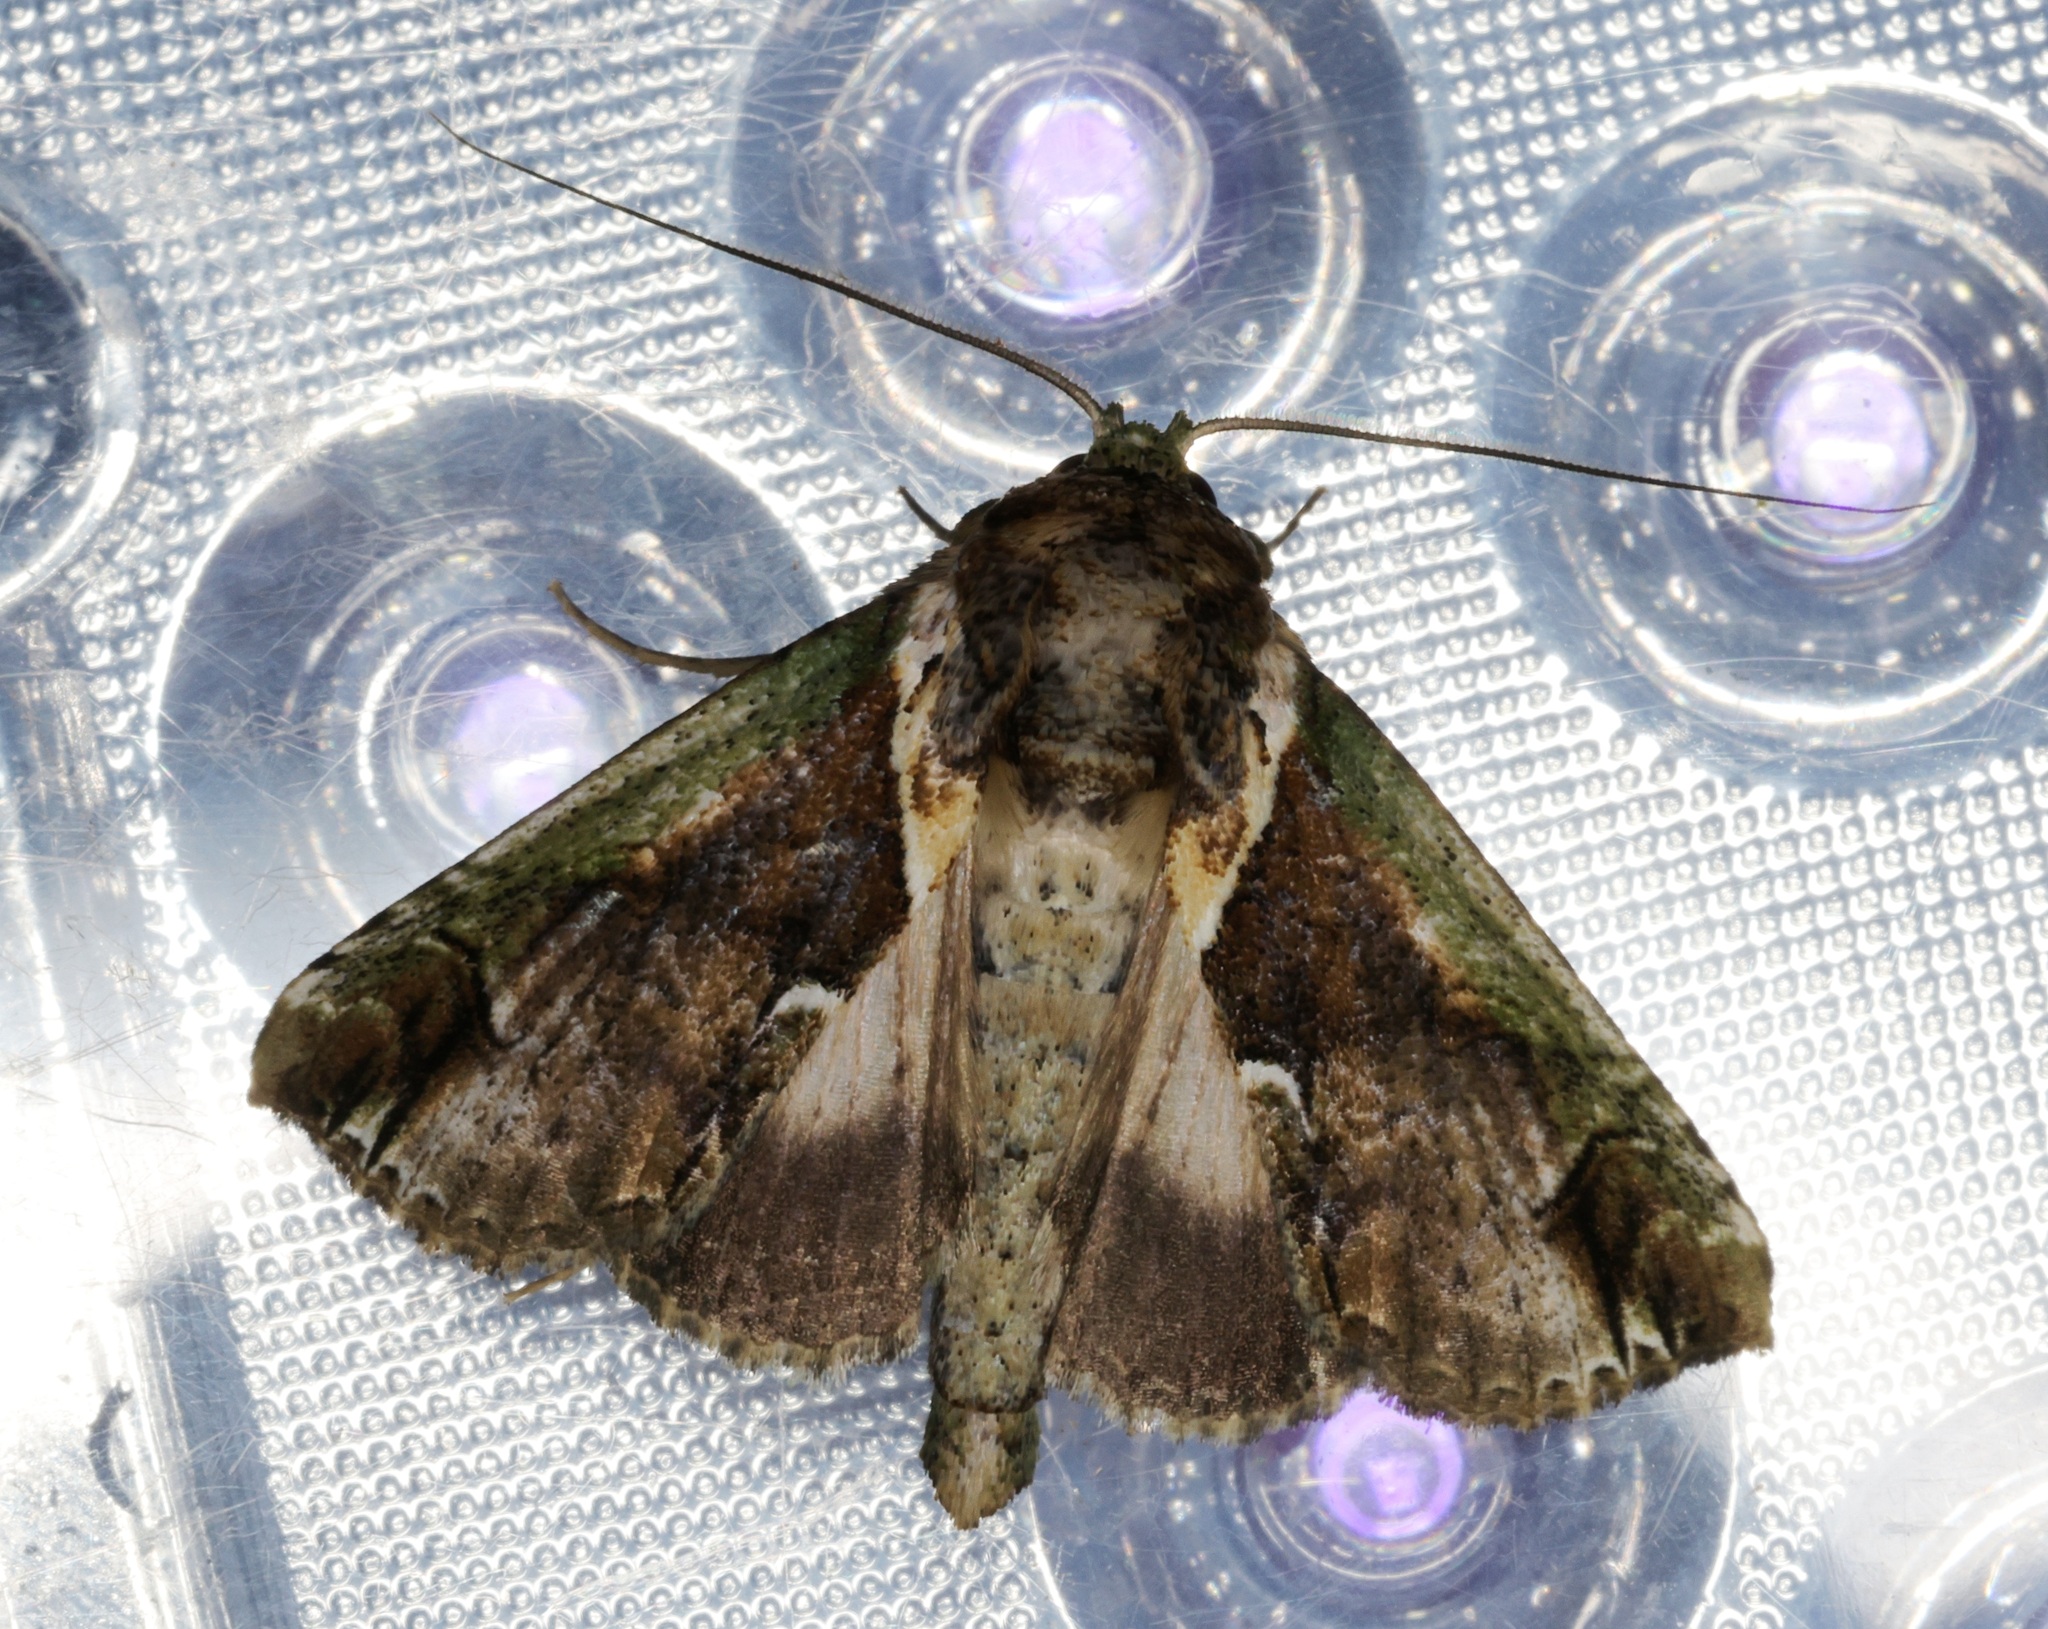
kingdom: Animalia
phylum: Arthropoda
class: Insecta
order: Lepidoptera
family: Nolidae
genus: Risoba
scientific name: Risoba basalis
